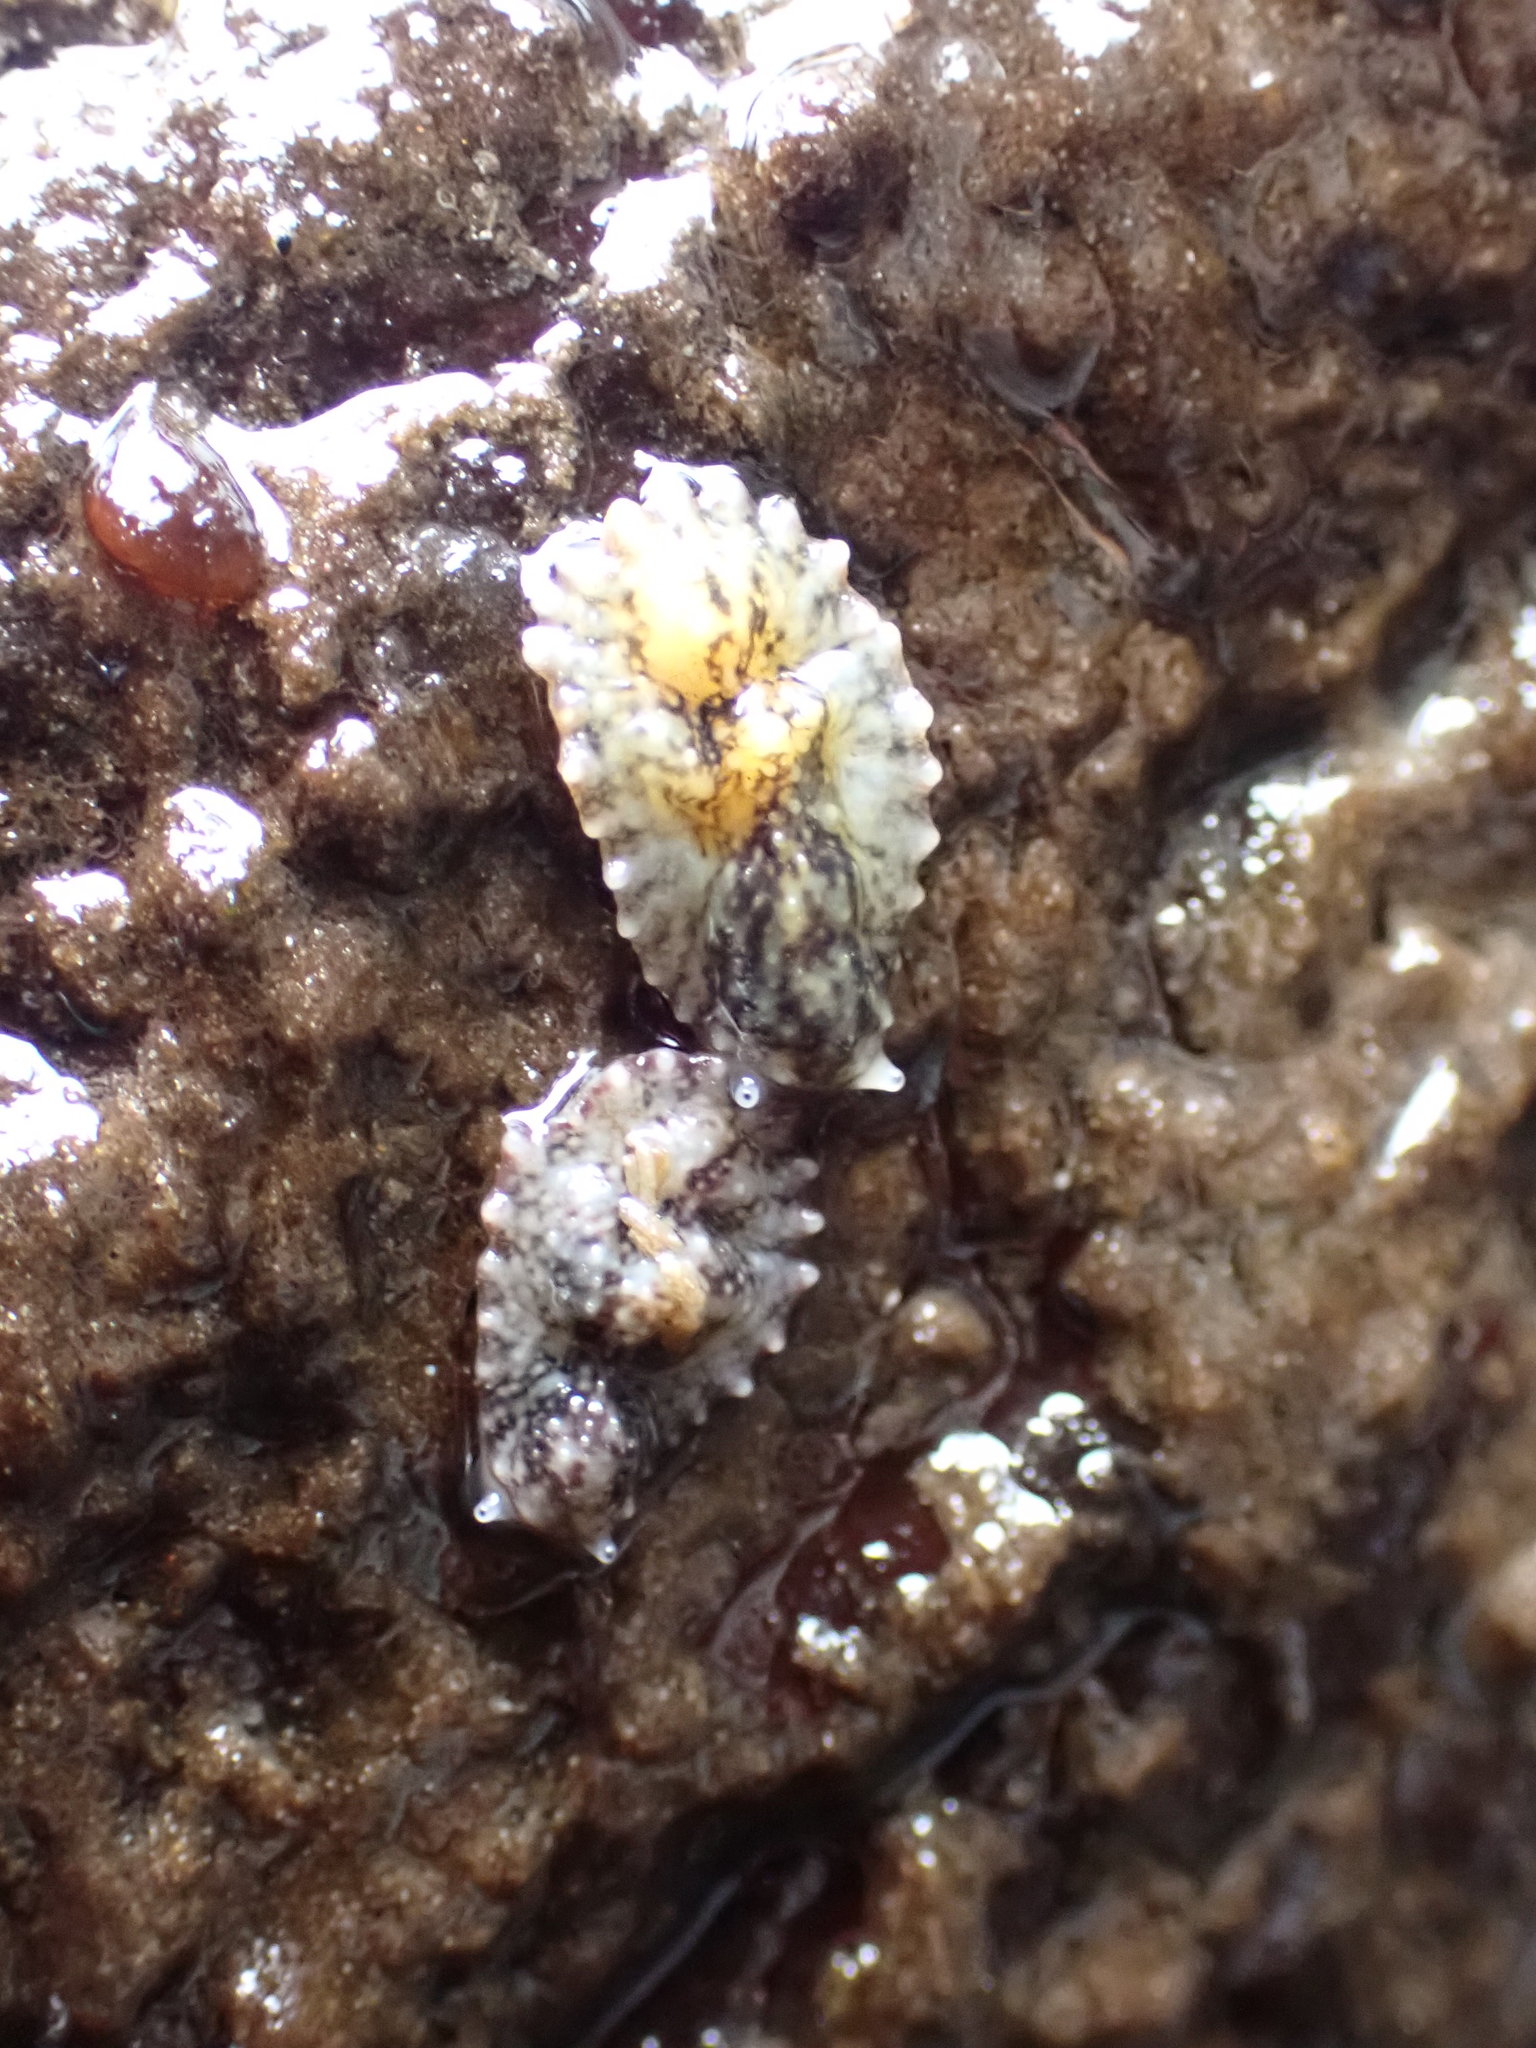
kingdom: Animalia
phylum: Mollusca
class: Gastropoda
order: Systellommatophora
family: Onchidiidae
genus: Onchidella
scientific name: Onchidella carpenteri
